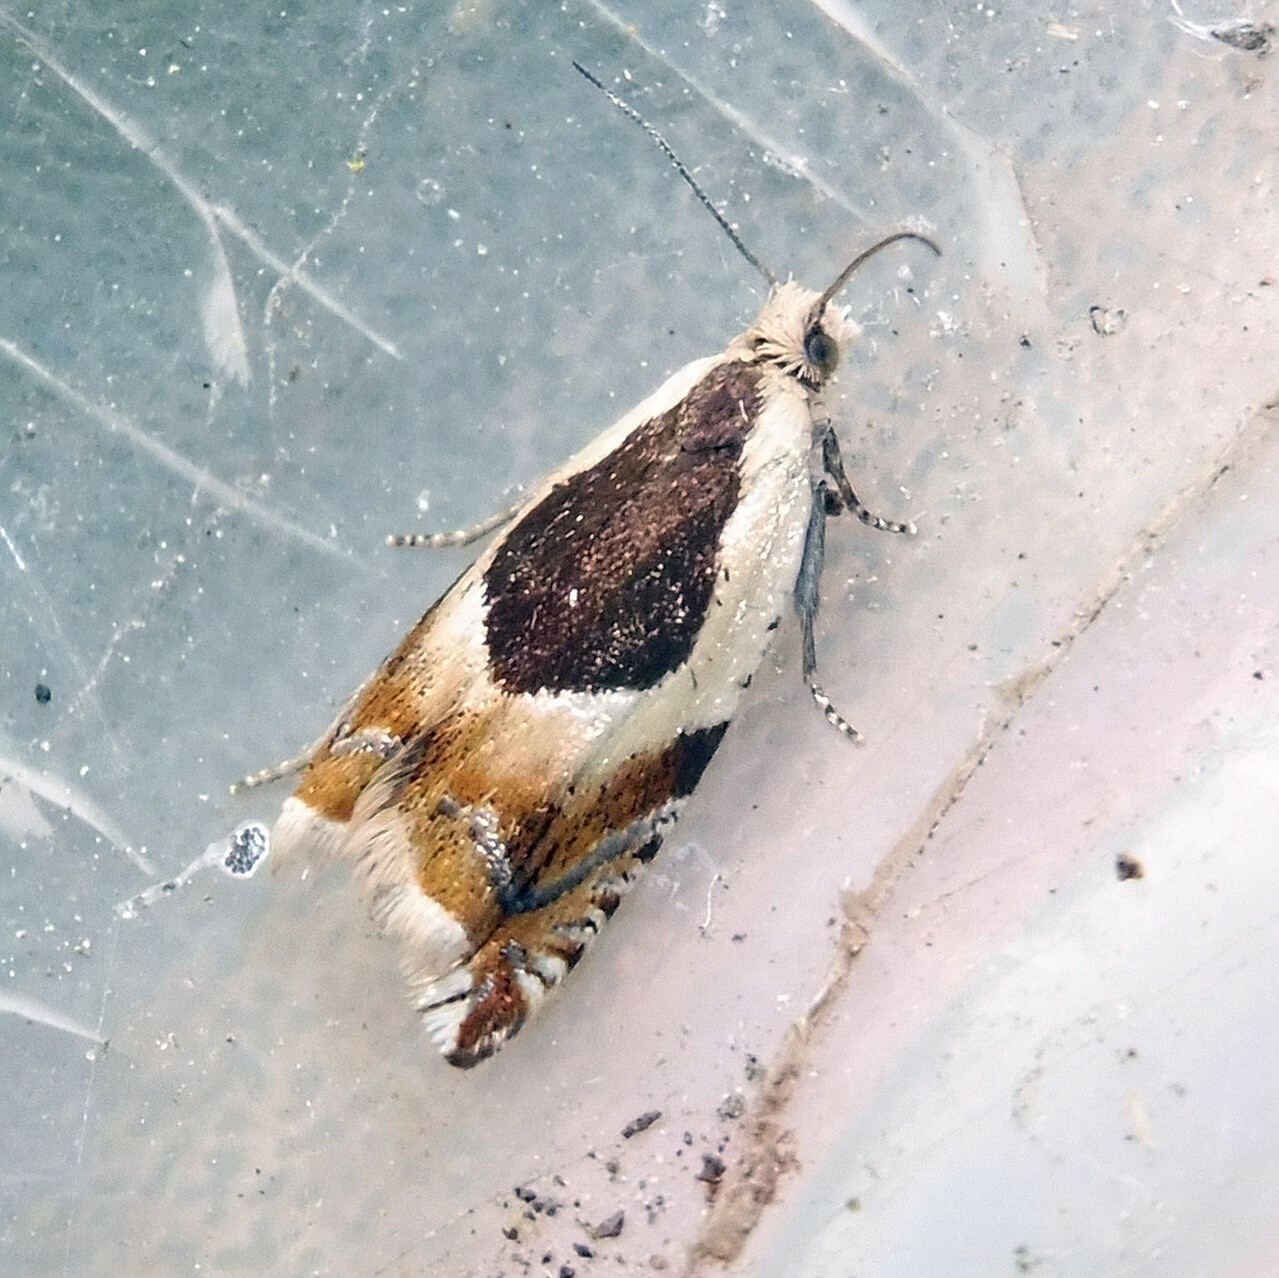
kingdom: Animalia
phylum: Arthropoda
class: Insecta
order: Lepidoptera
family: Tortricidae
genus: Ancylis
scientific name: Ancylis badiana
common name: Common roller
